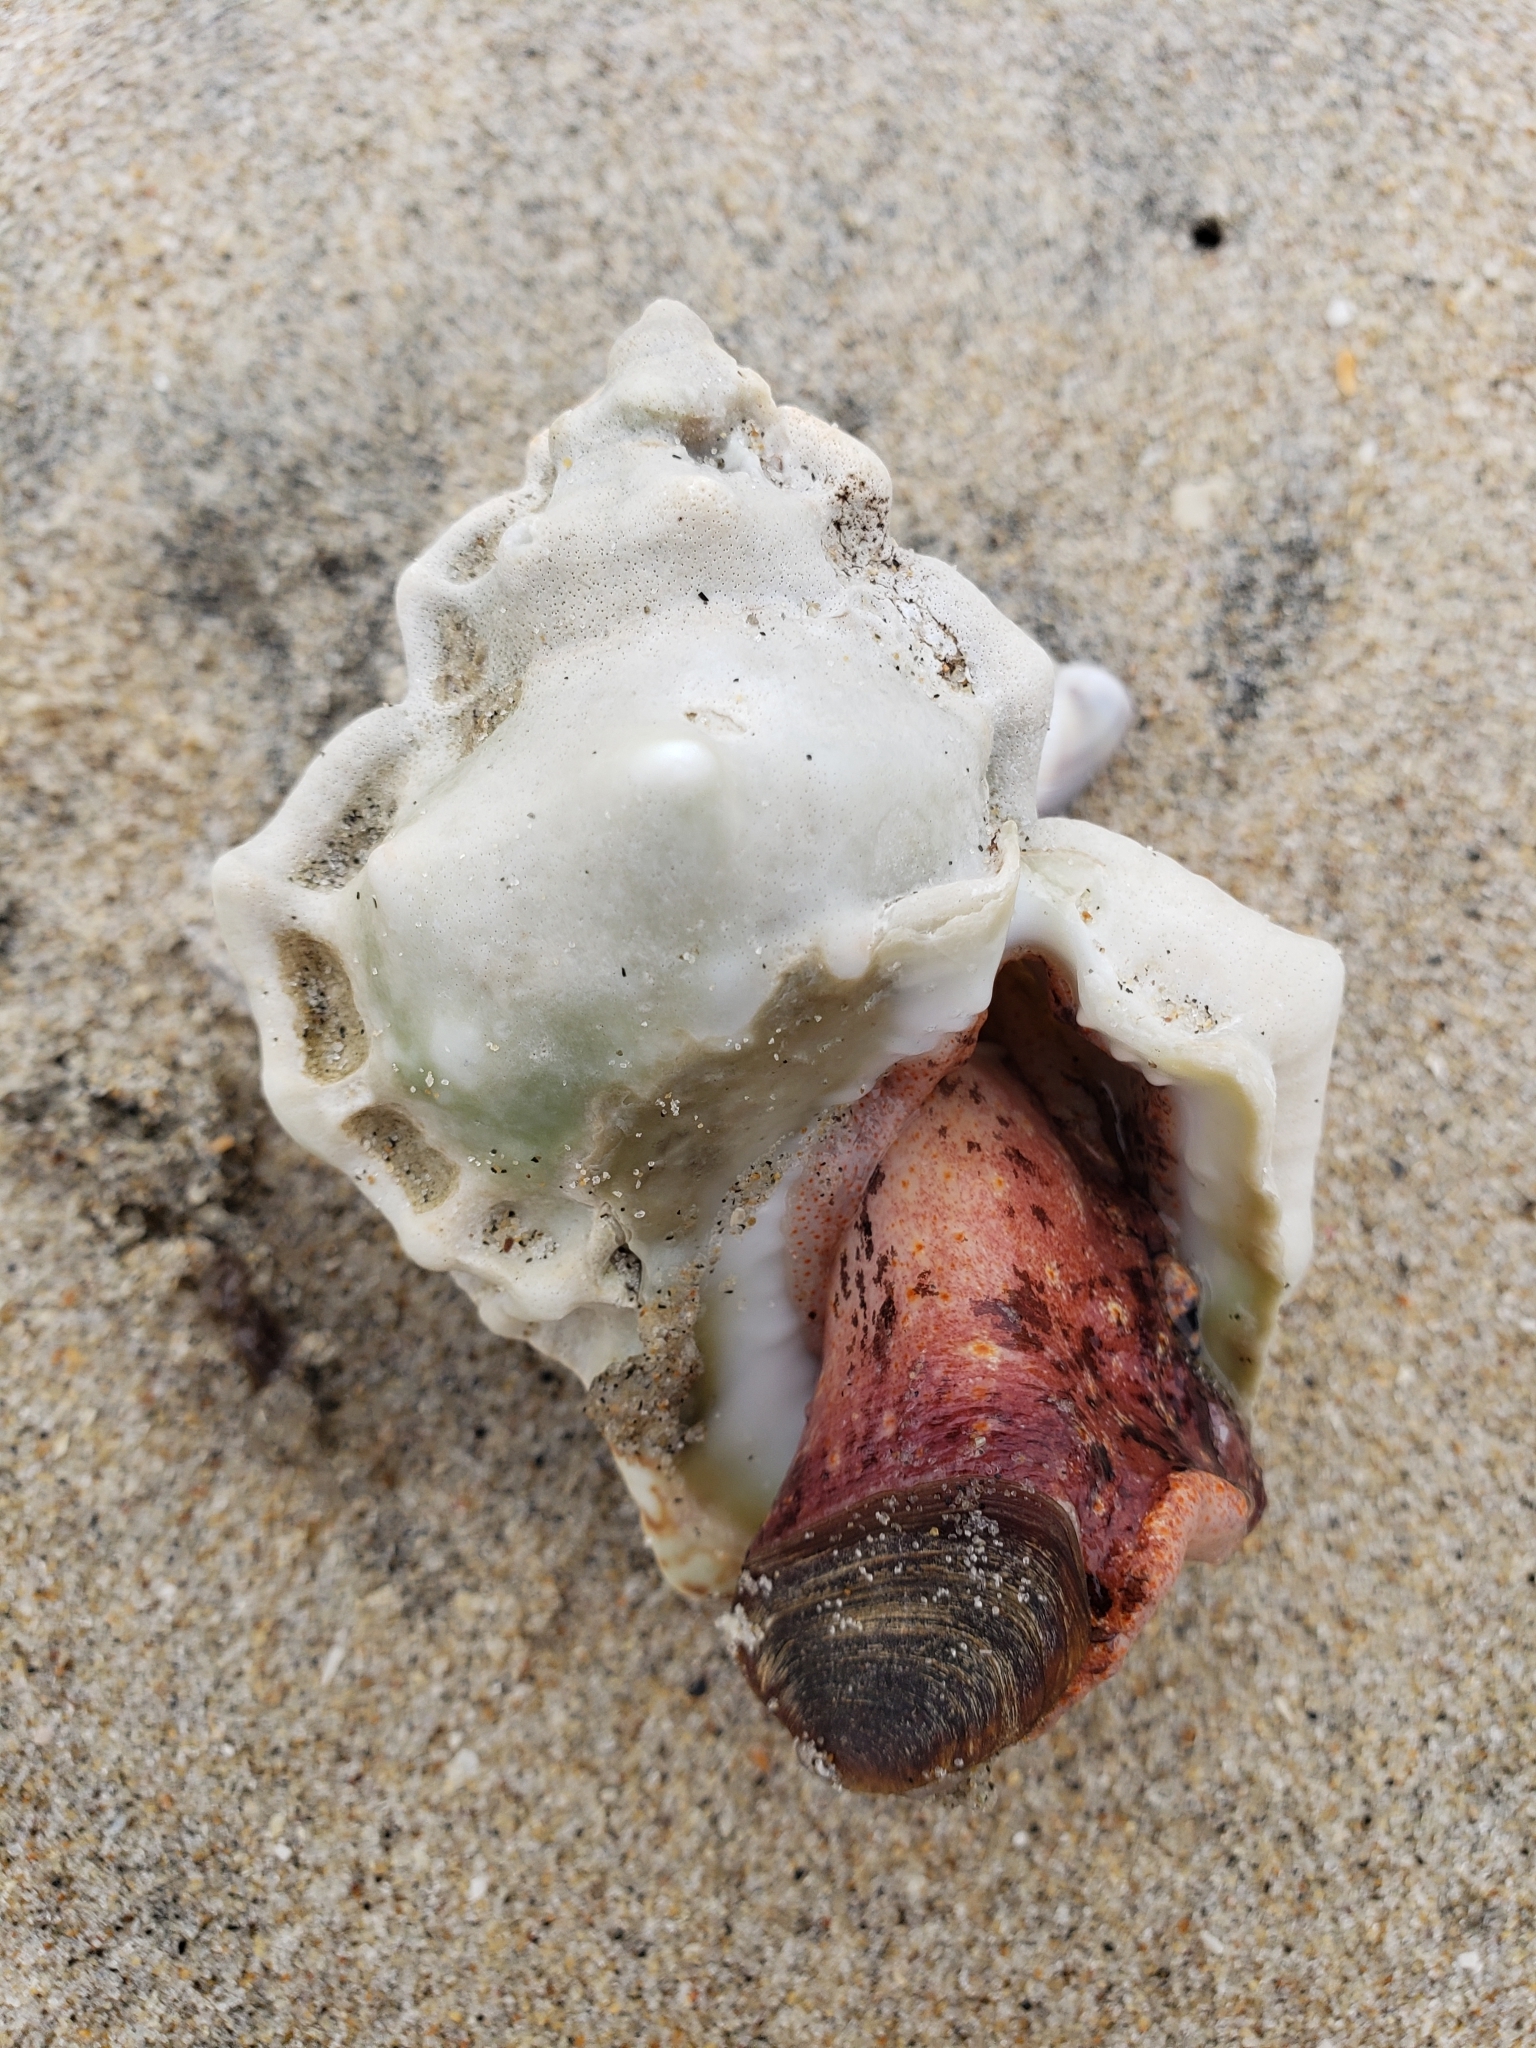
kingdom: Animalia
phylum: Mollusca
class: Gastropoda
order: Littorinimorpha
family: Bursidae
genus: Crossata
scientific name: Crossata californica
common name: California frogsnail
